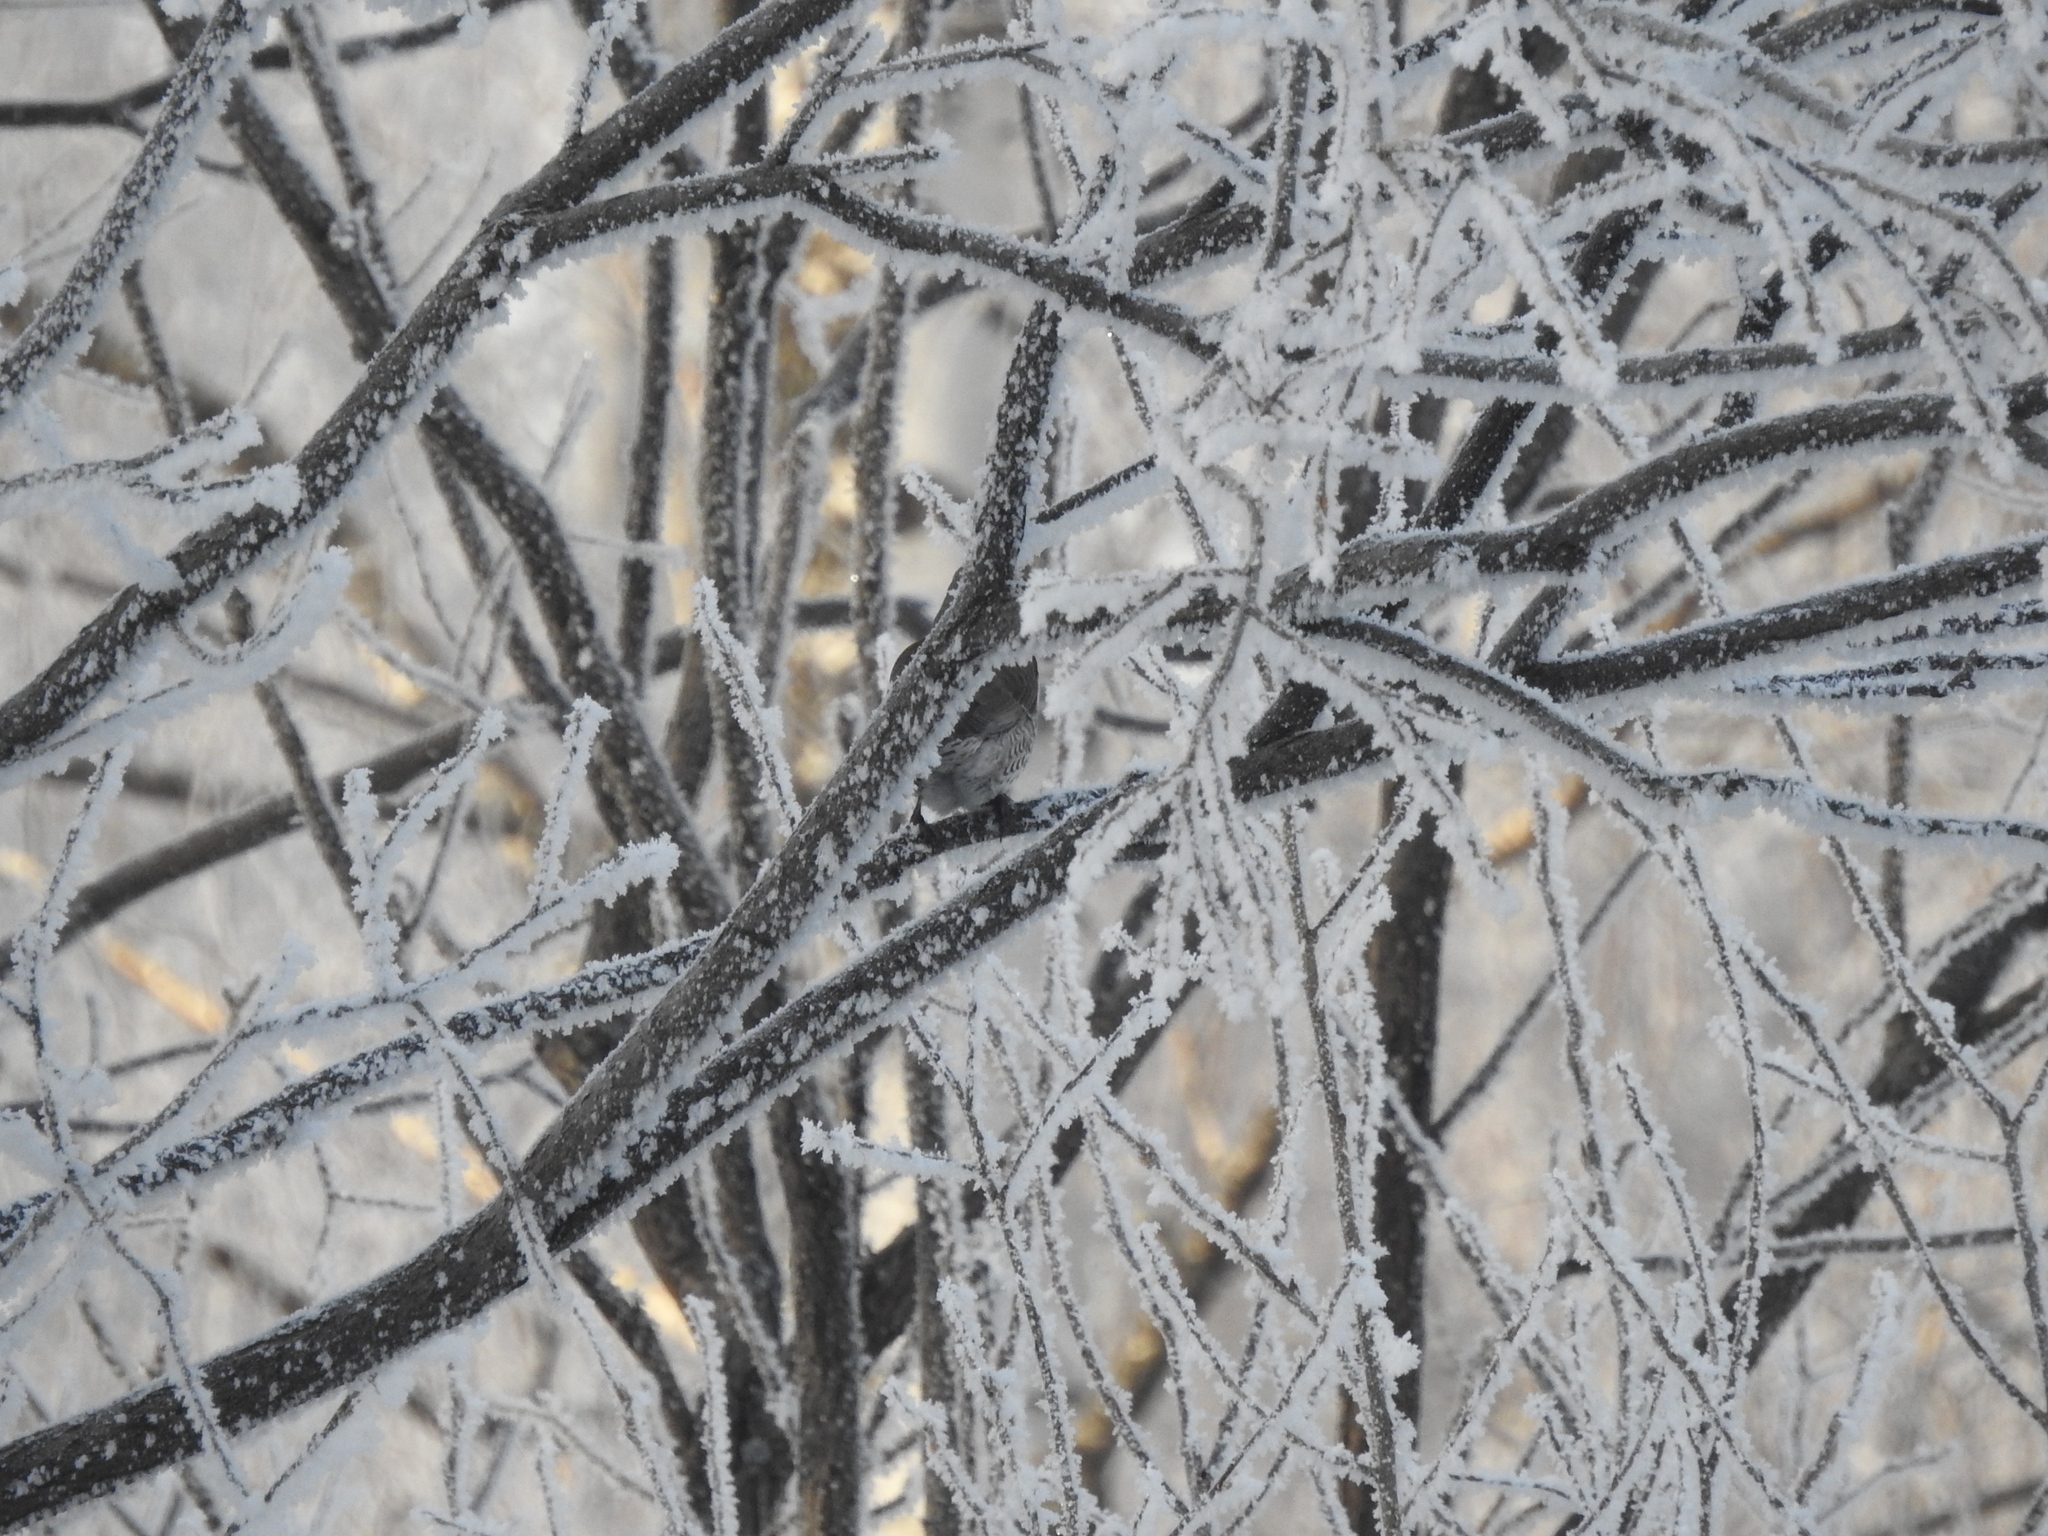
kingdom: Animalia
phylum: Chordata
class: Aves
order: Passeriformes
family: Turdidae
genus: Turdus
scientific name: Turdus pilaris
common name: Fieldfare
